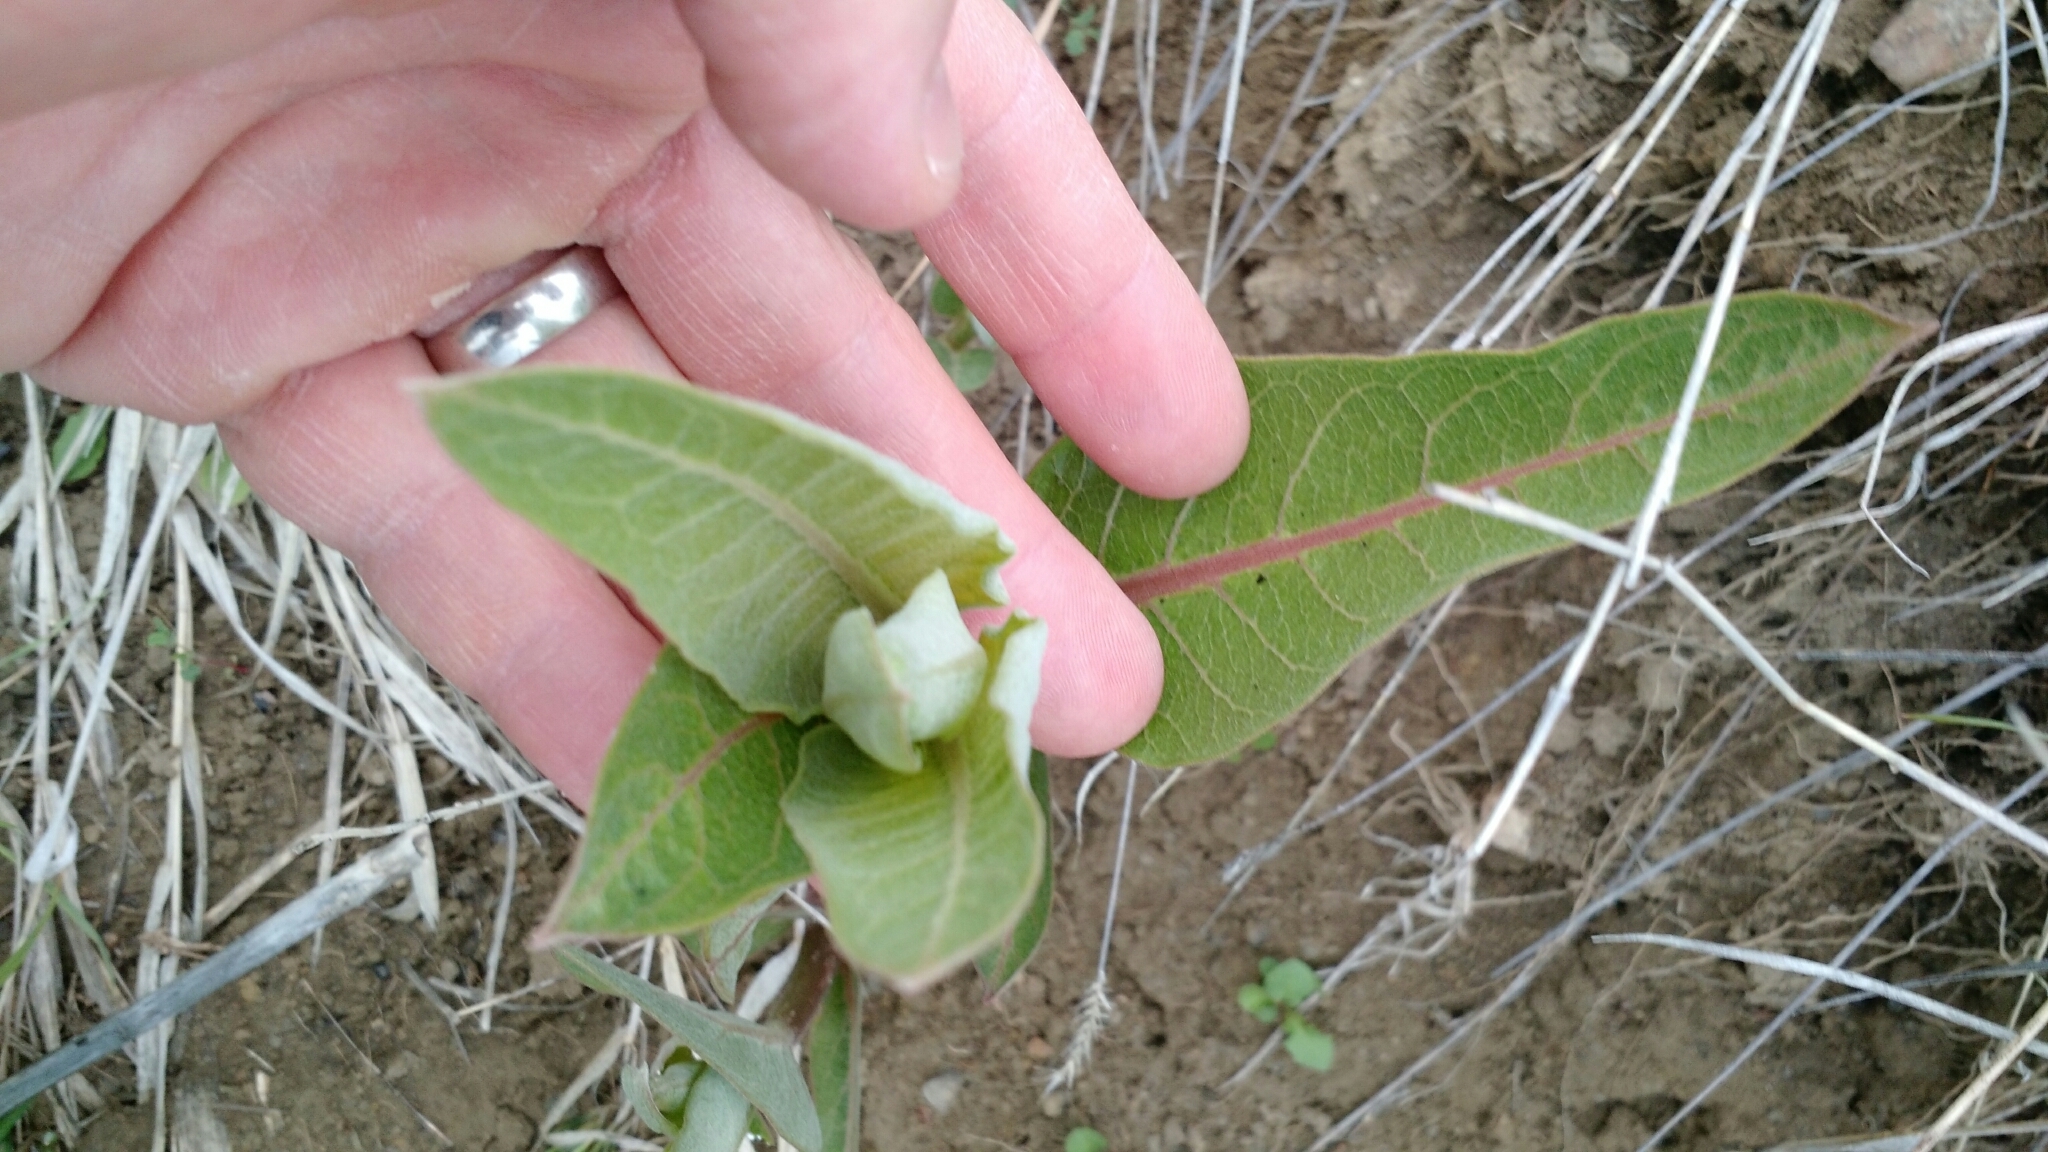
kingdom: Plantae
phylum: Tracheophyta
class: Magnoliopsida
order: Gentianales
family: Apocynaceae
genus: Asclepias
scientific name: Asclepias speciosa
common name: Showy milkweed
